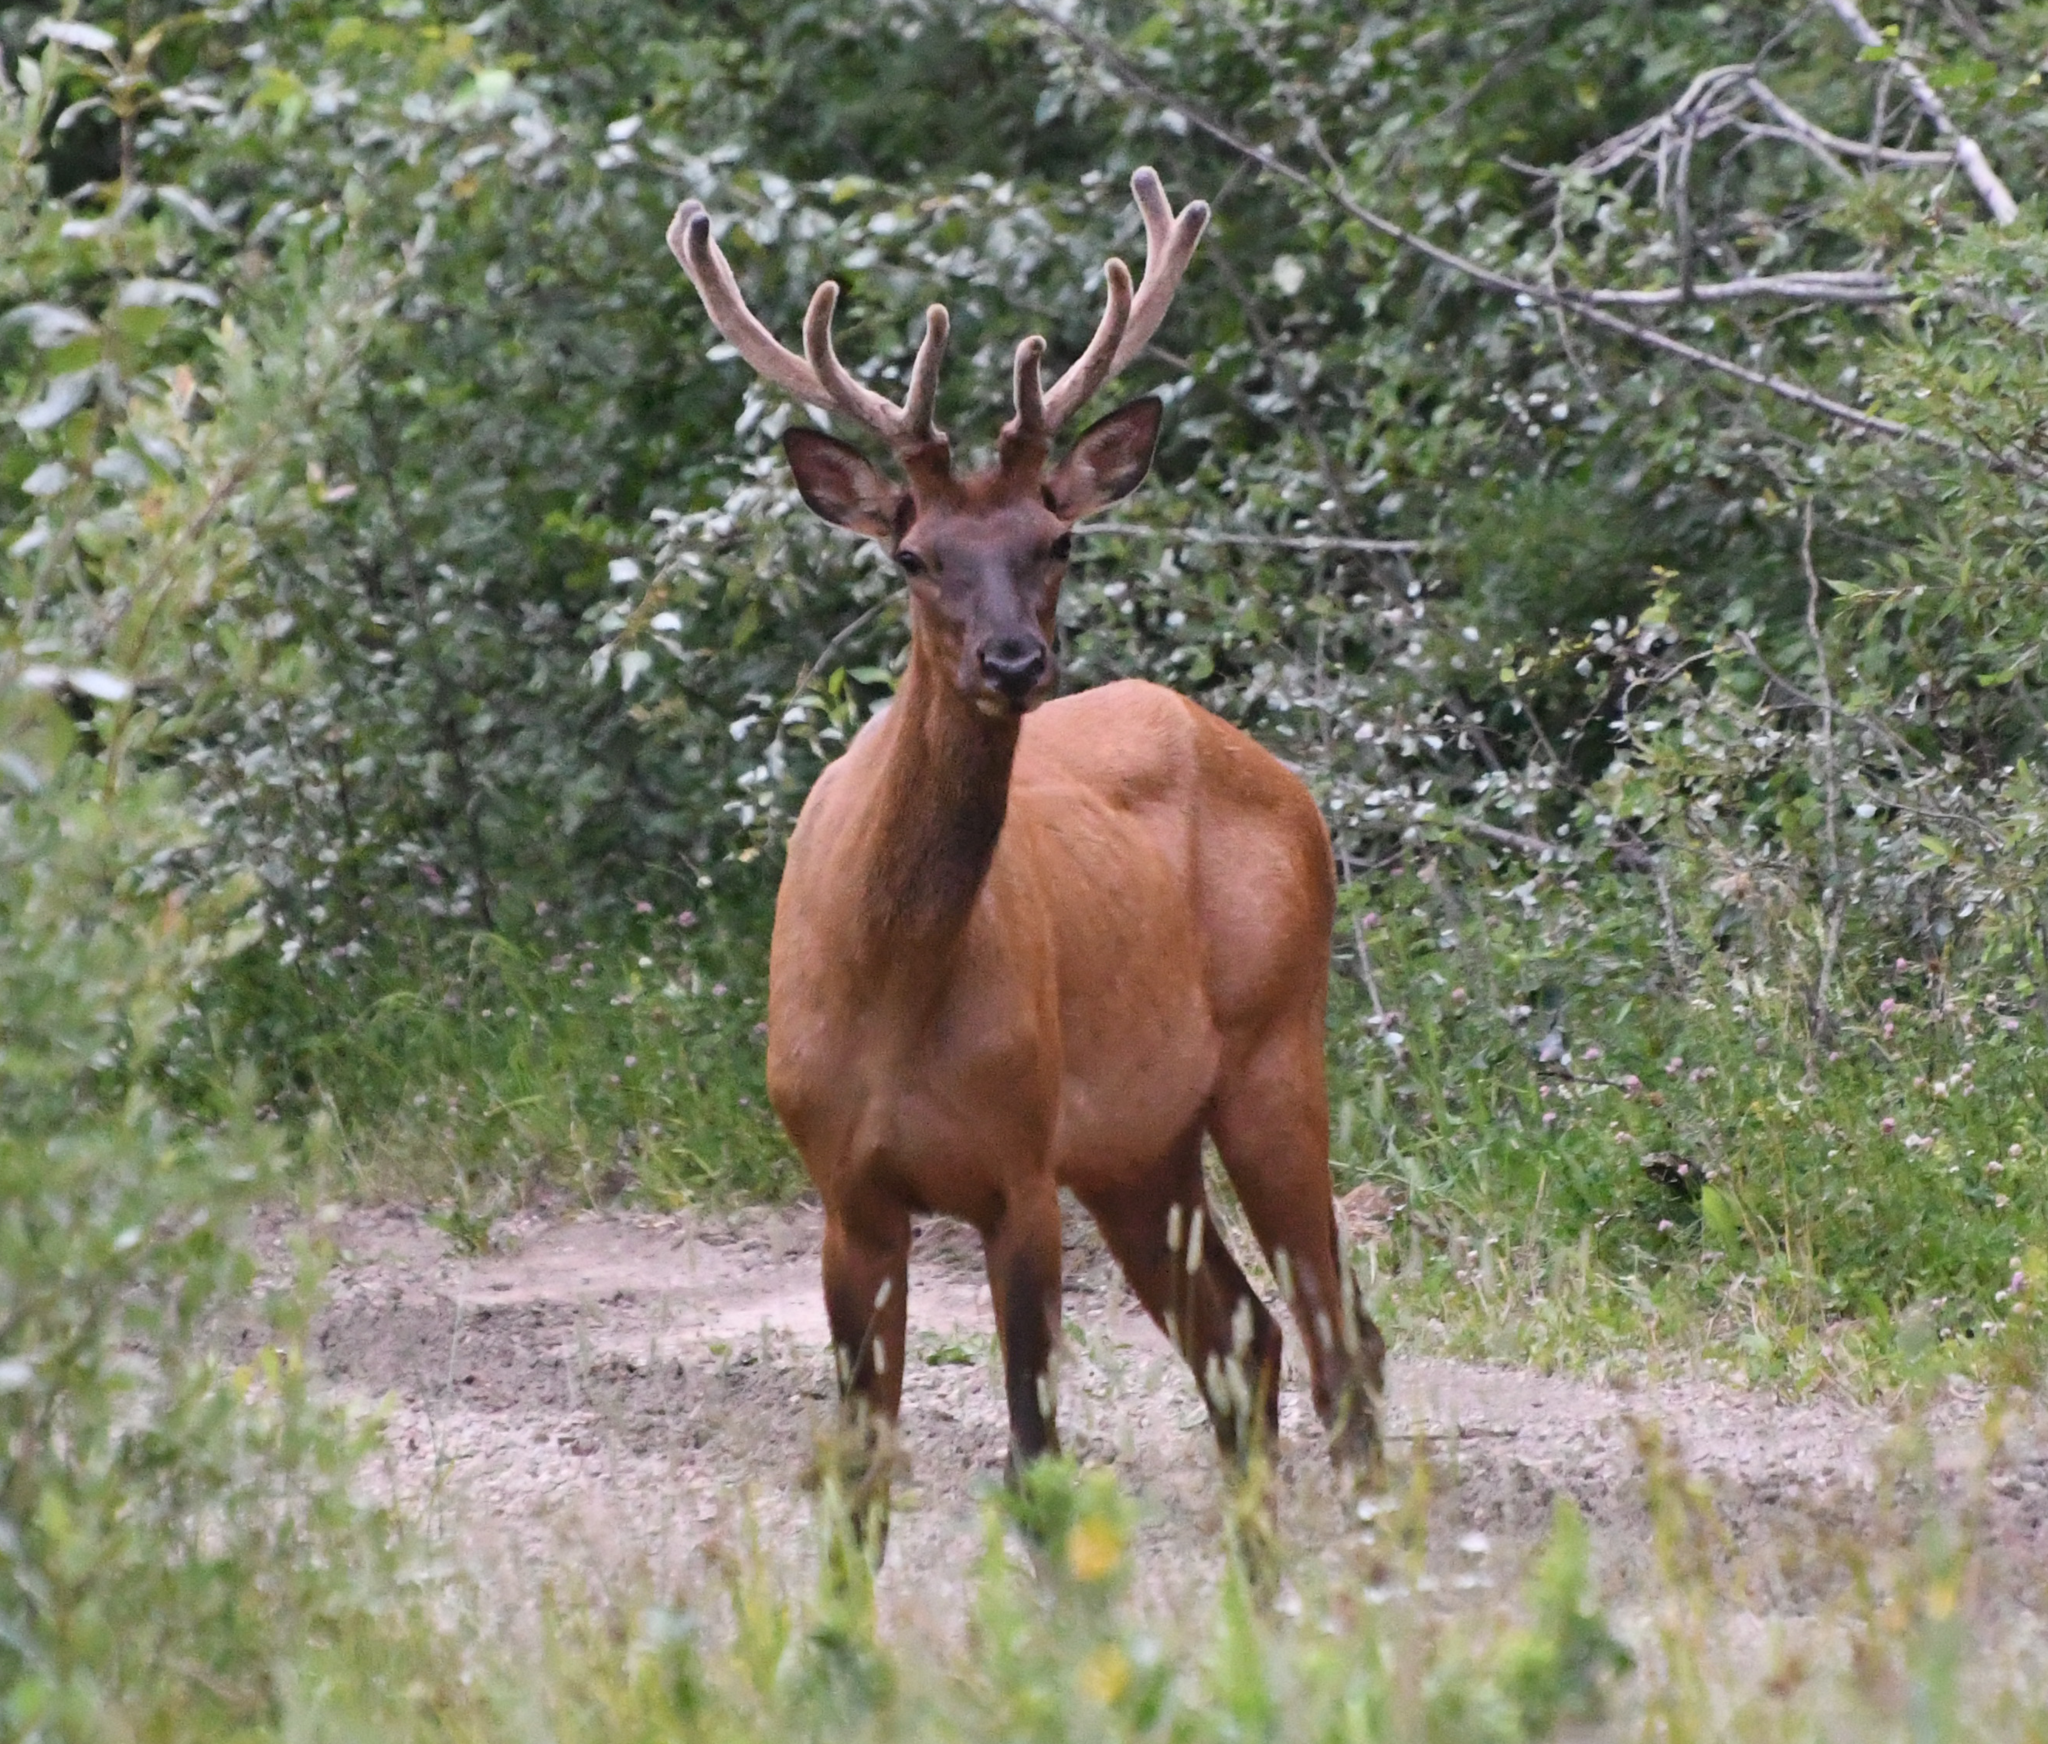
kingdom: Animalia
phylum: Chordata
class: Mammalia
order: Artiodactyla
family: Cervidae
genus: Cervus
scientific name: Cervus elaphus
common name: Red deer
